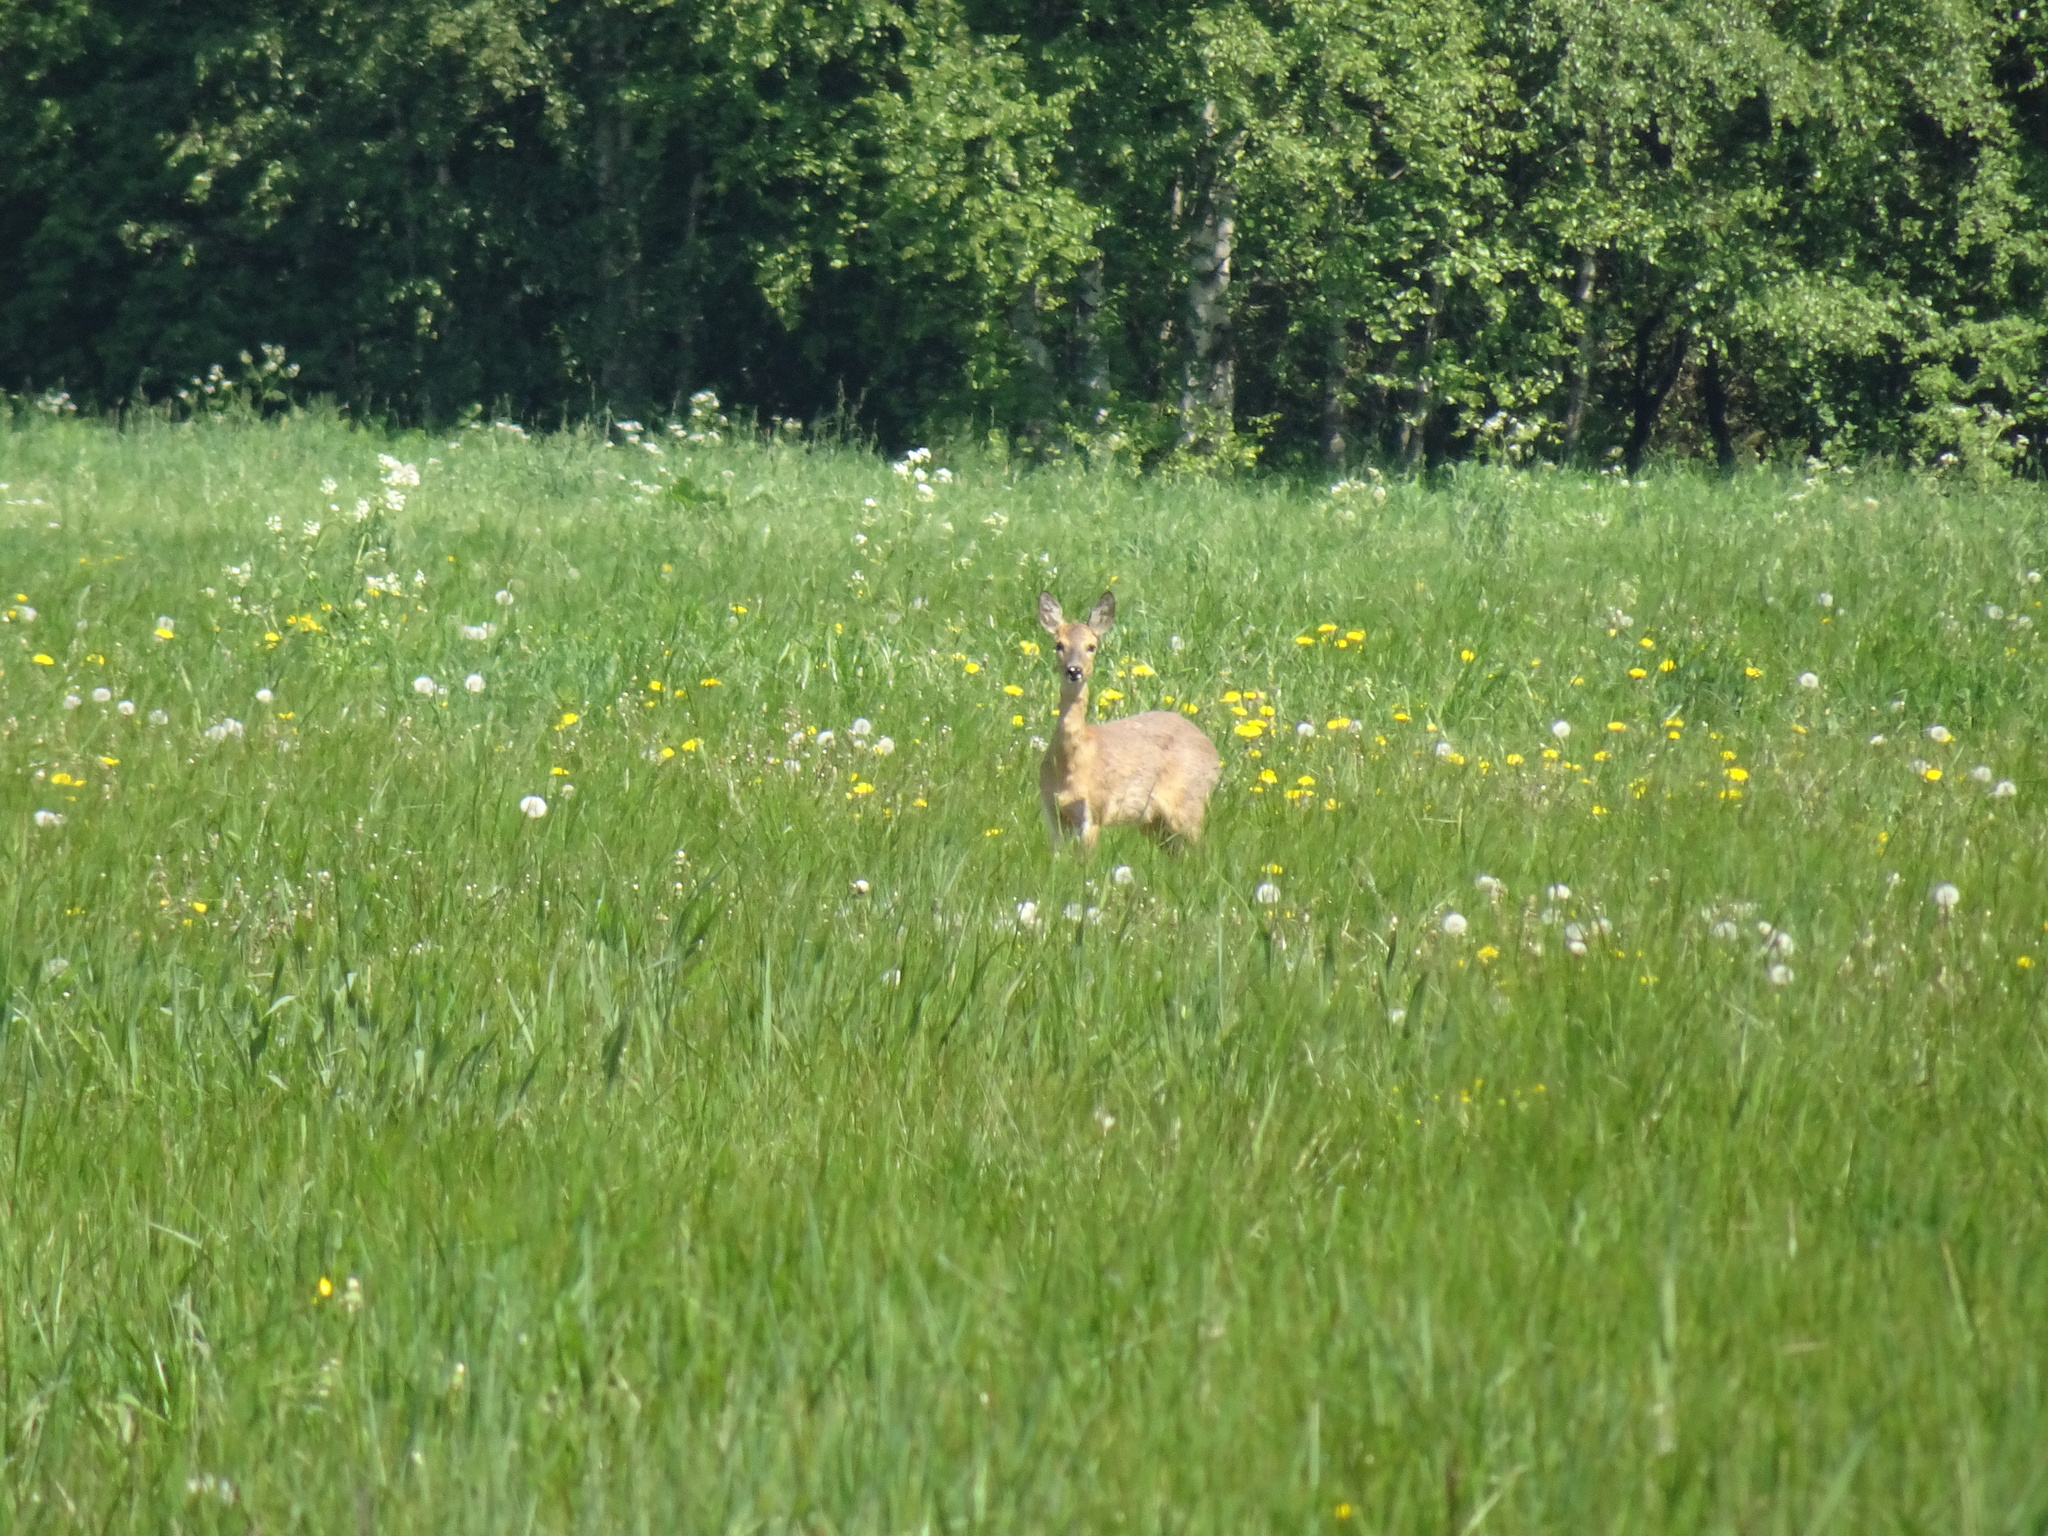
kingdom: Animalia
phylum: Chordata
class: Mammalia
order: Artiodactyla
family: Cervidae
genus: Capreolus
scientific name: Capreolus capreolus
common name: Western roe deer
